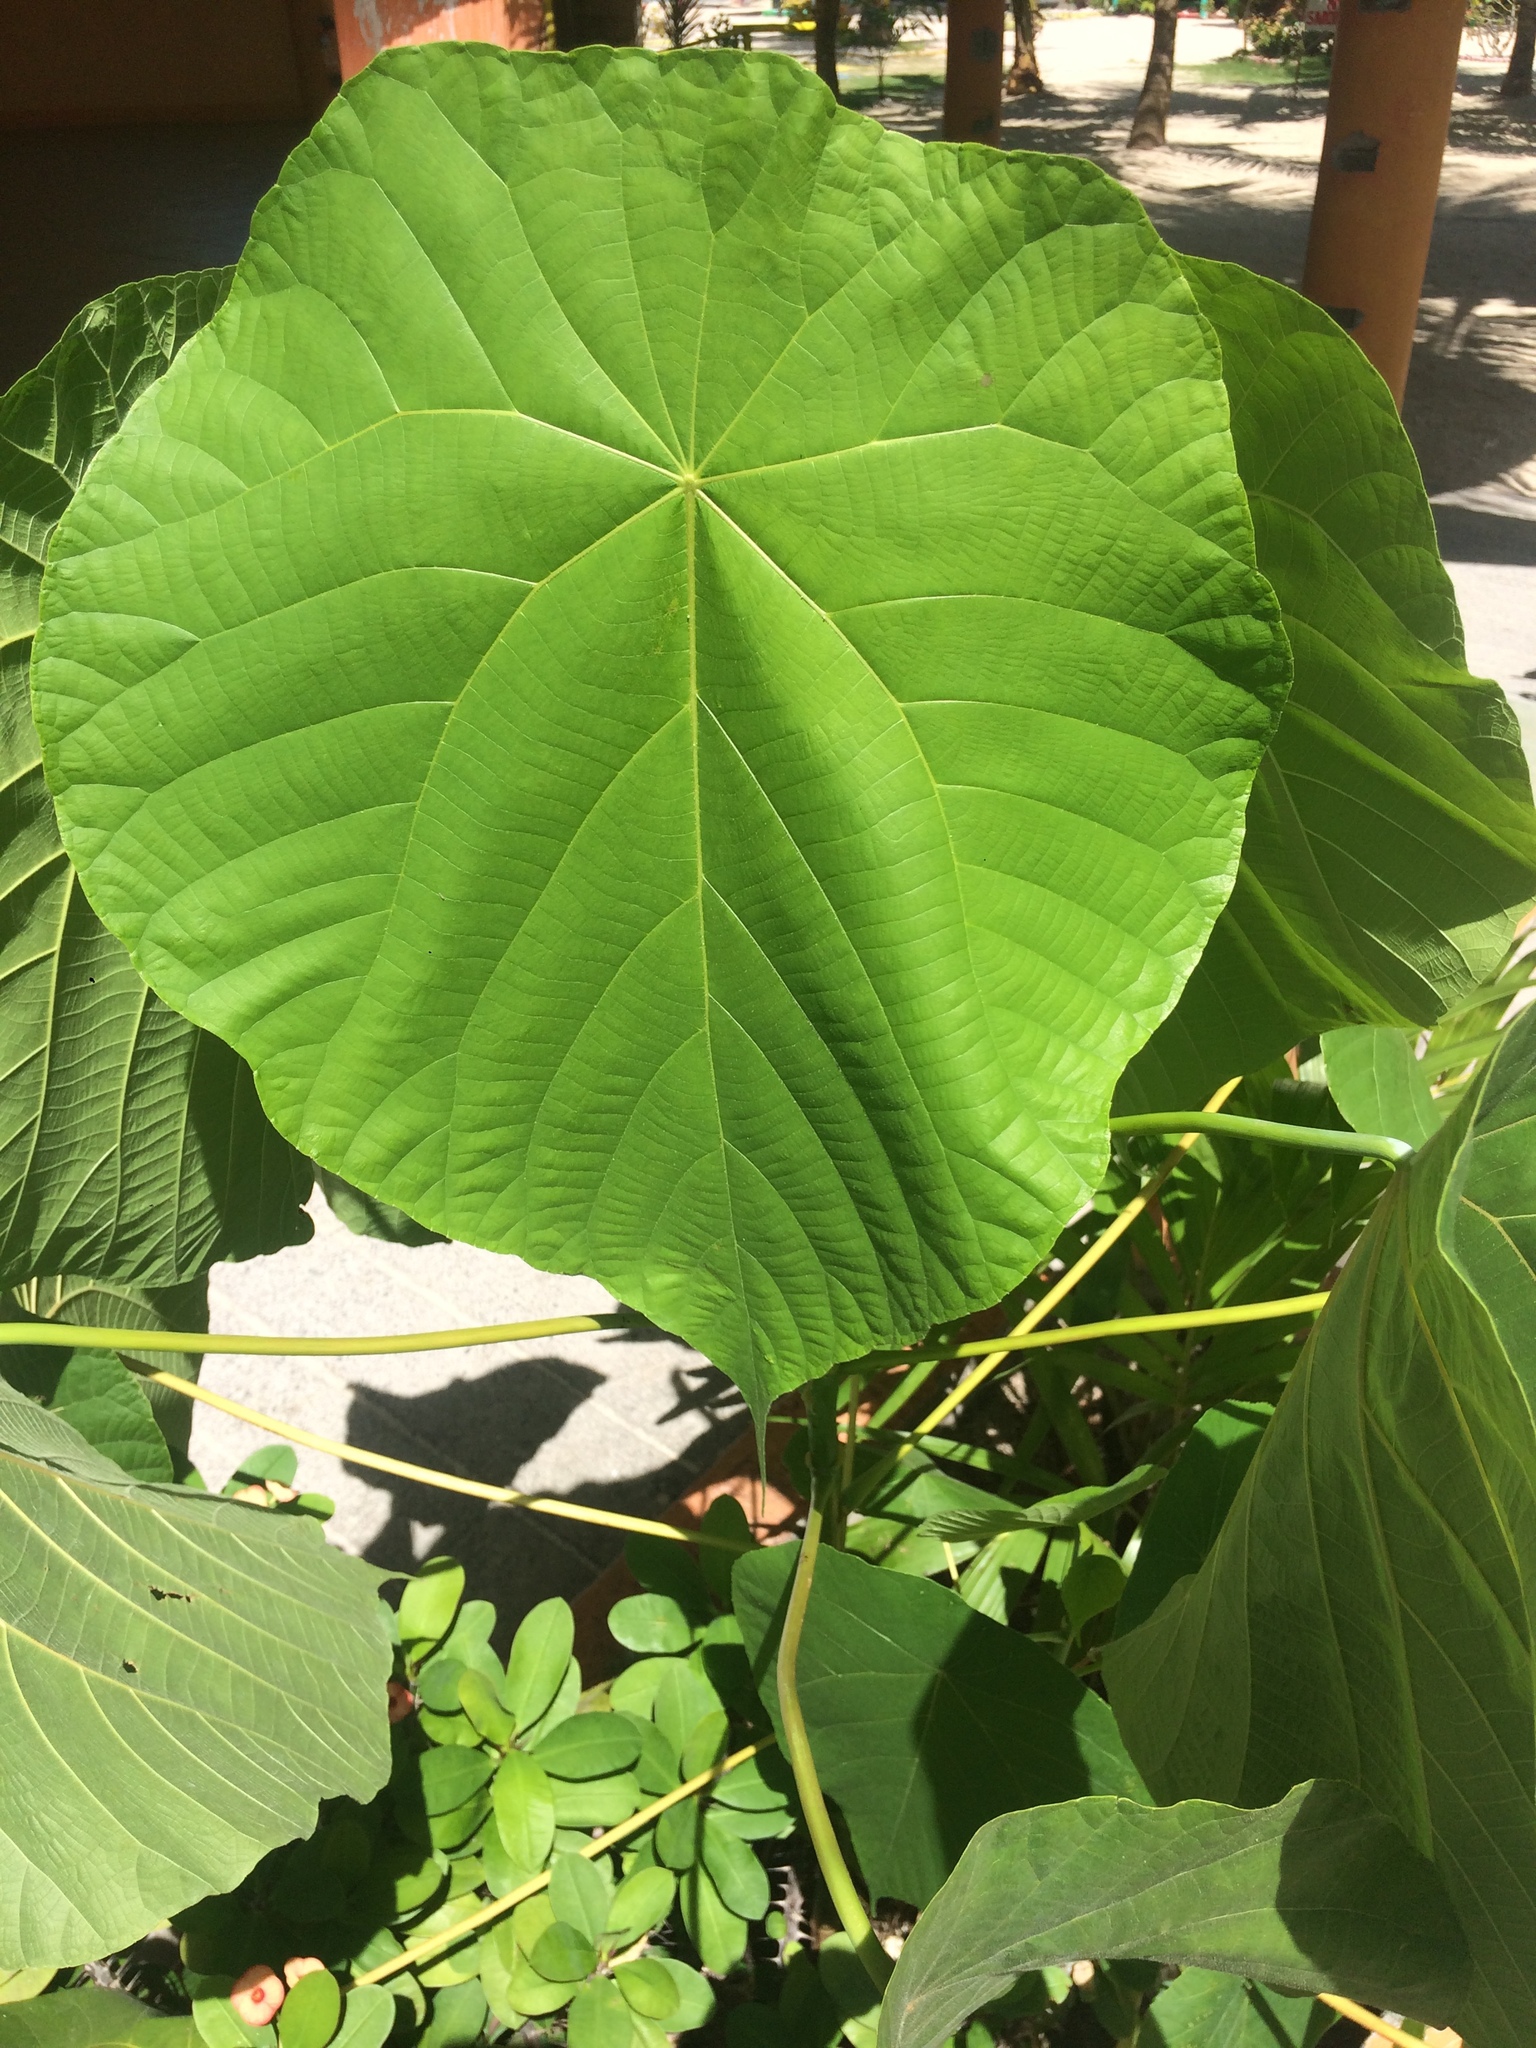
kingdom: Plantae
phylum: Tracheophyta
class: Magnoliopsida
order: Malpighiales
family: Euphorbiaceae
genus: Macaranga
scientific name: Macaranga tanarius
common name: Parasol leaf tree
